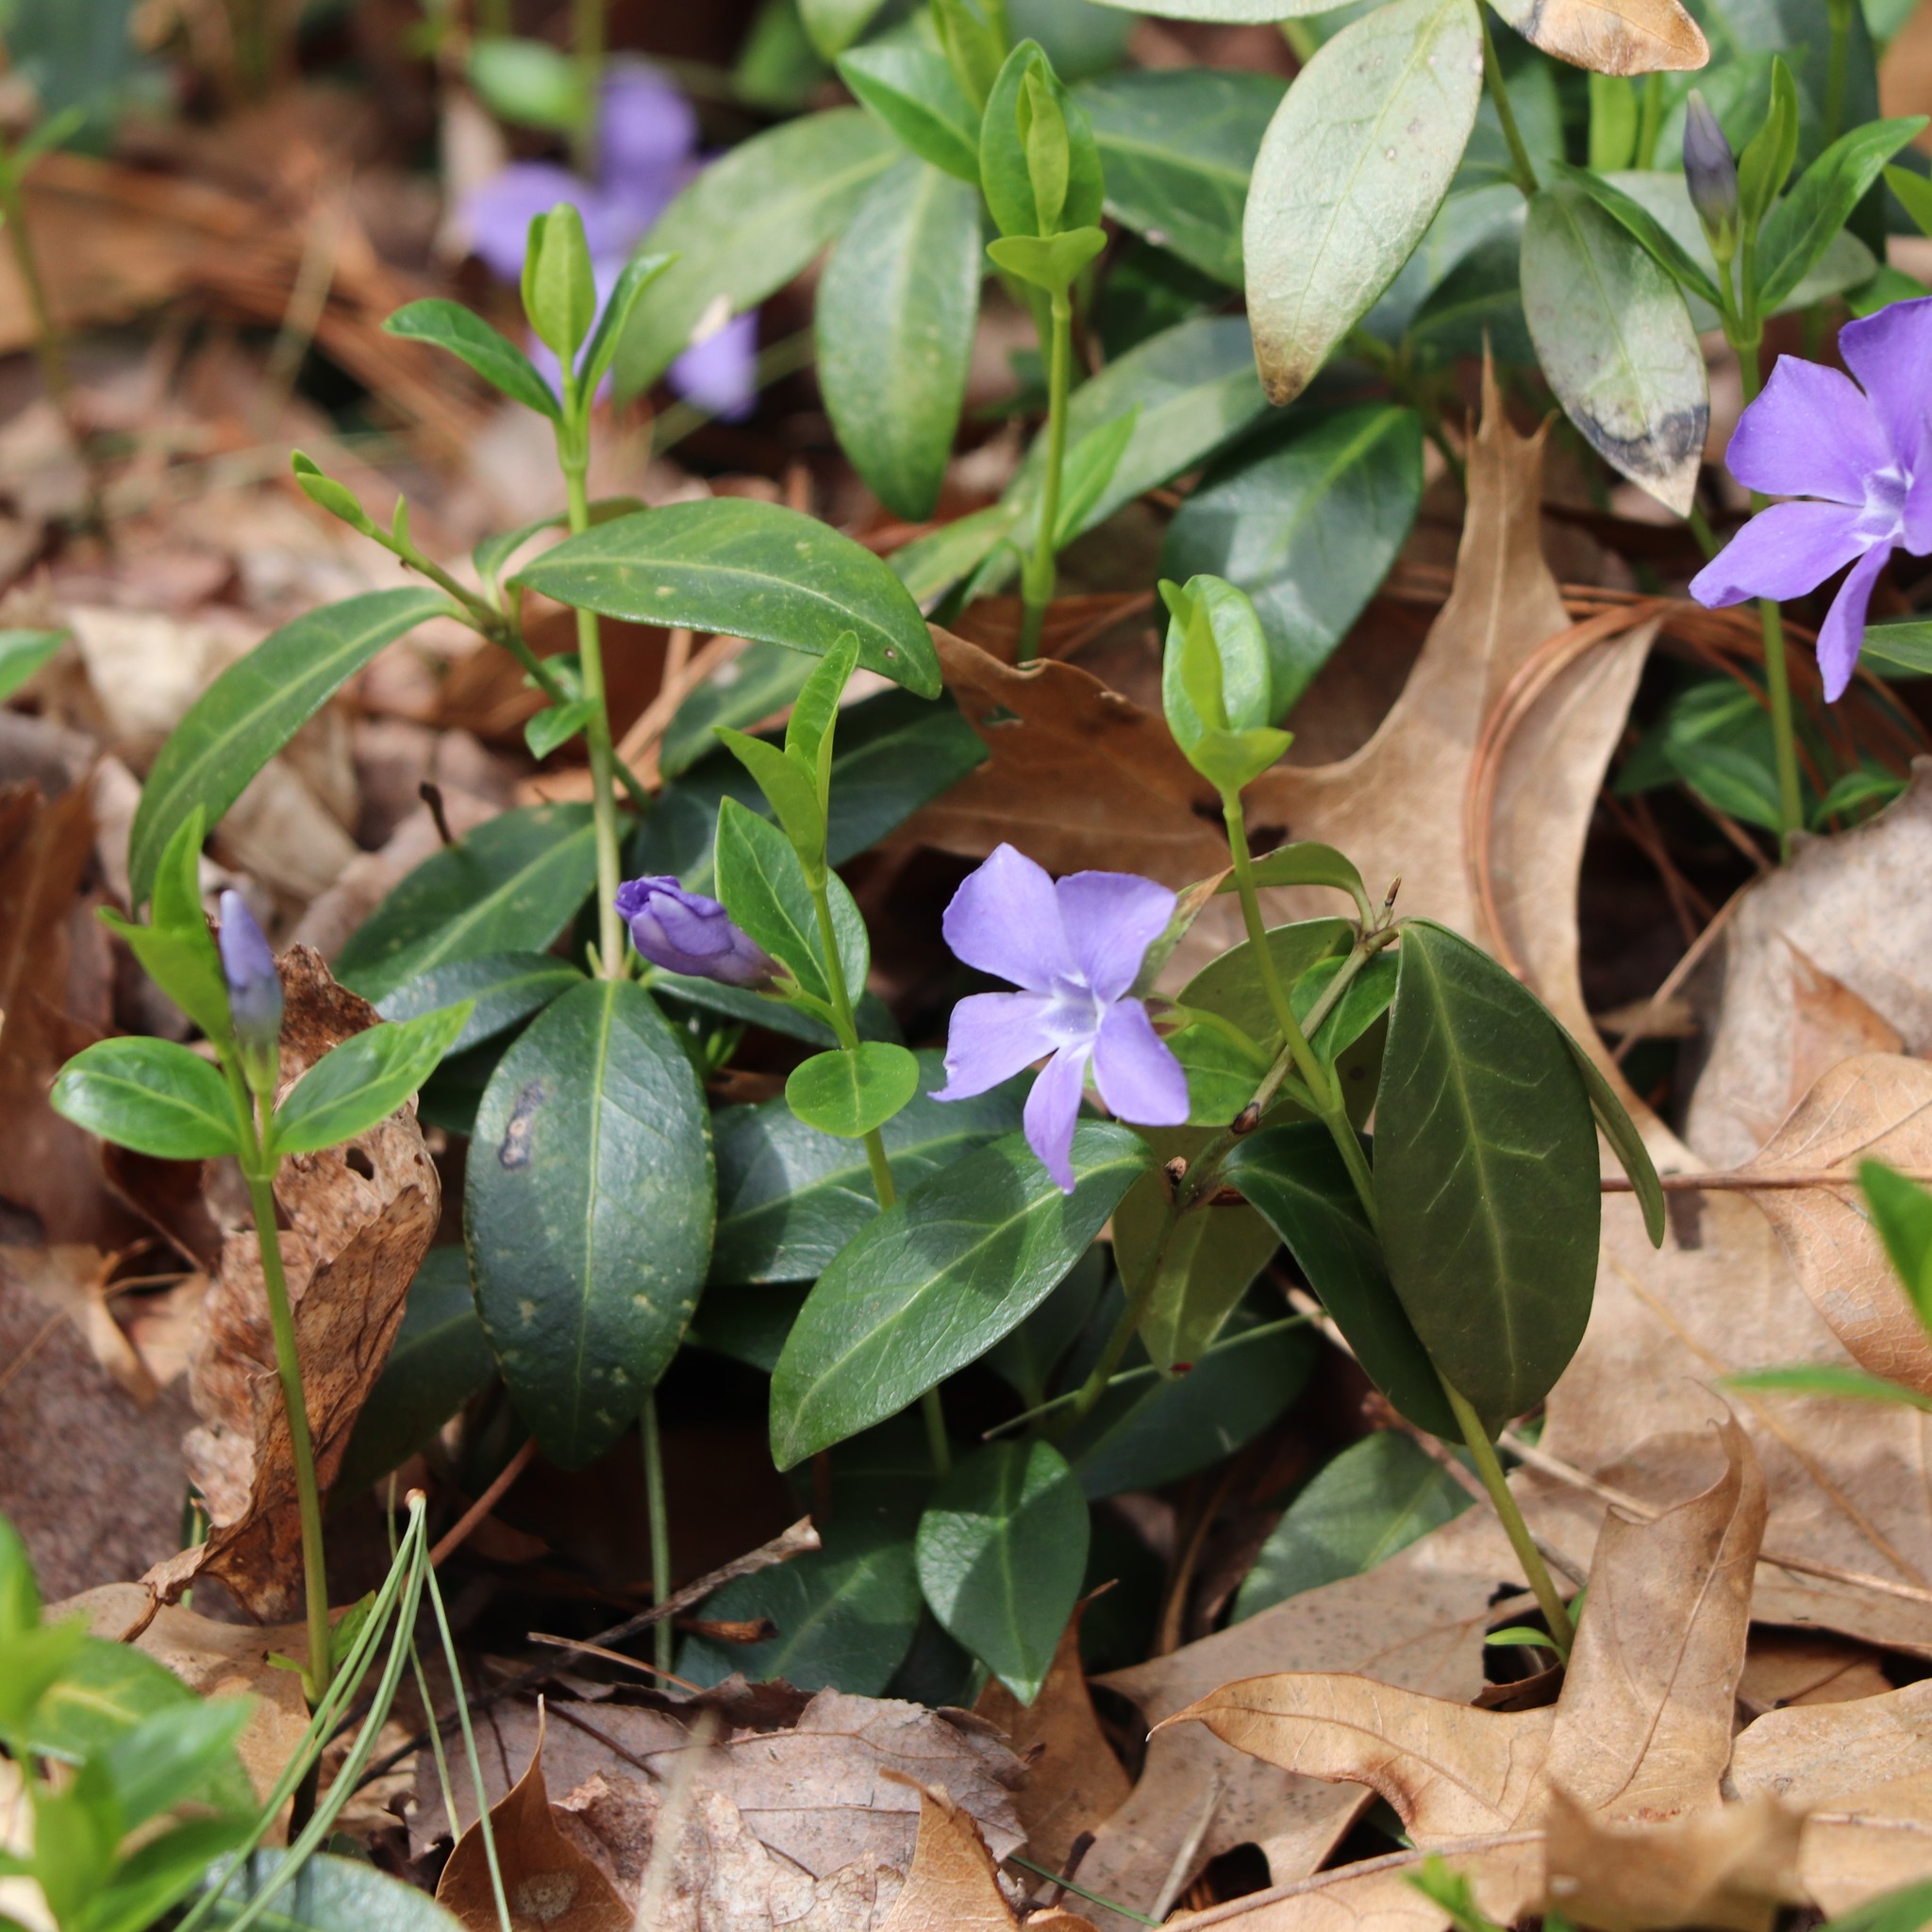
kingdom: Plantae
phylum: Tracheophyta
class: Magnoliopsida
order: Gentianales
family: Apocynaceae
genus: Vinca
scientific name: Vinca minor
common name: Lesser periwinkle
